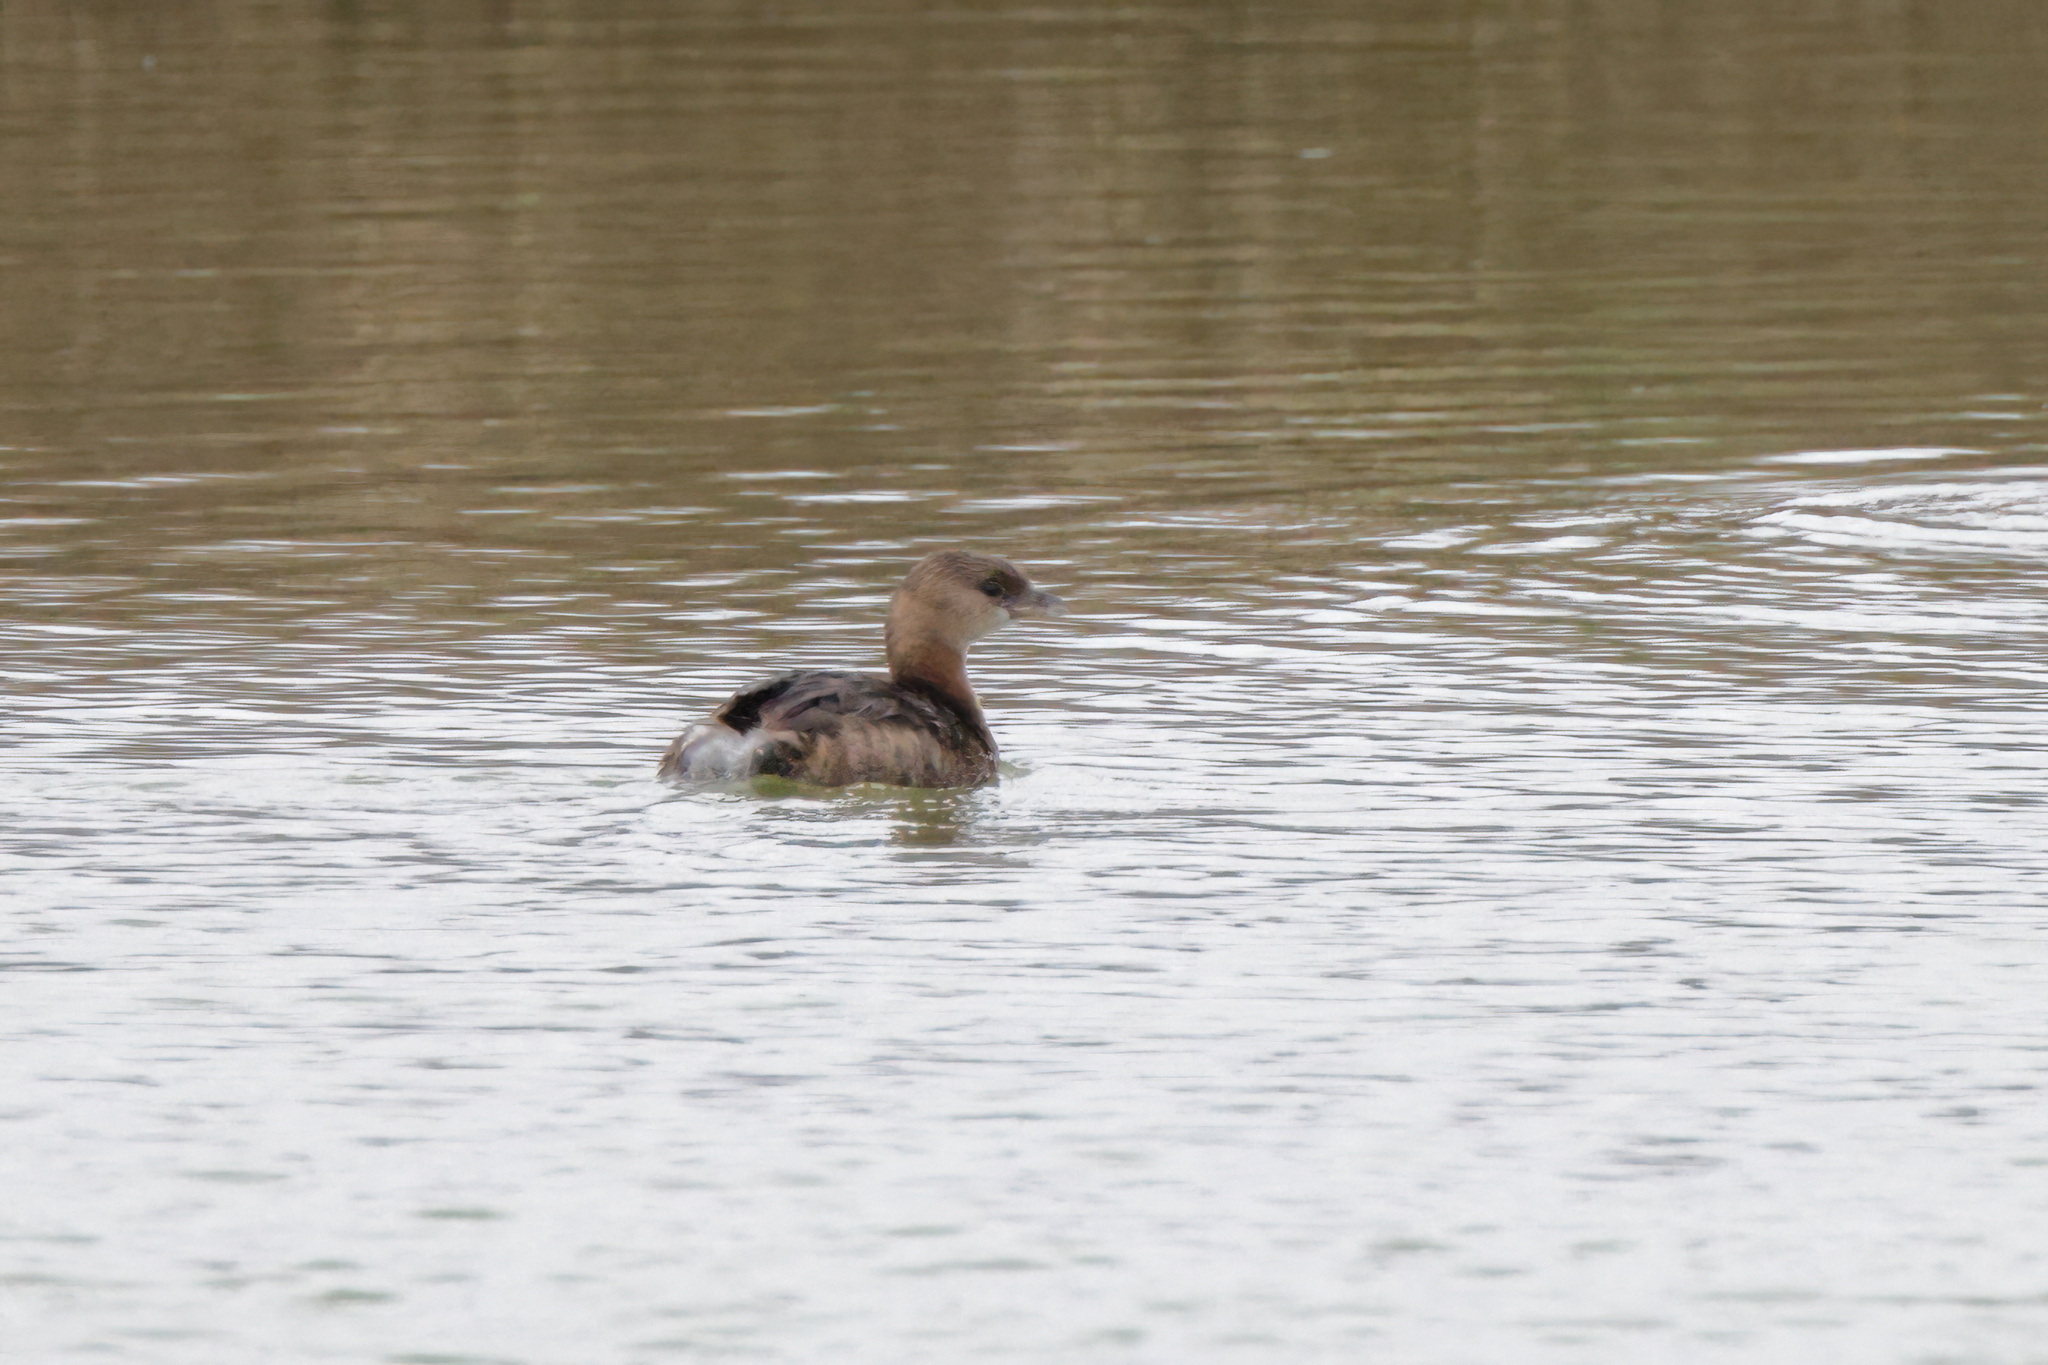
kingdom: Animalia
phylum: Chordata
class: Aves
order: Podicipediformes
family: Podicipedidae
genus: Podilymbus
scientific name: Podilymbus podiceps
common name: Pied-billed grebe
